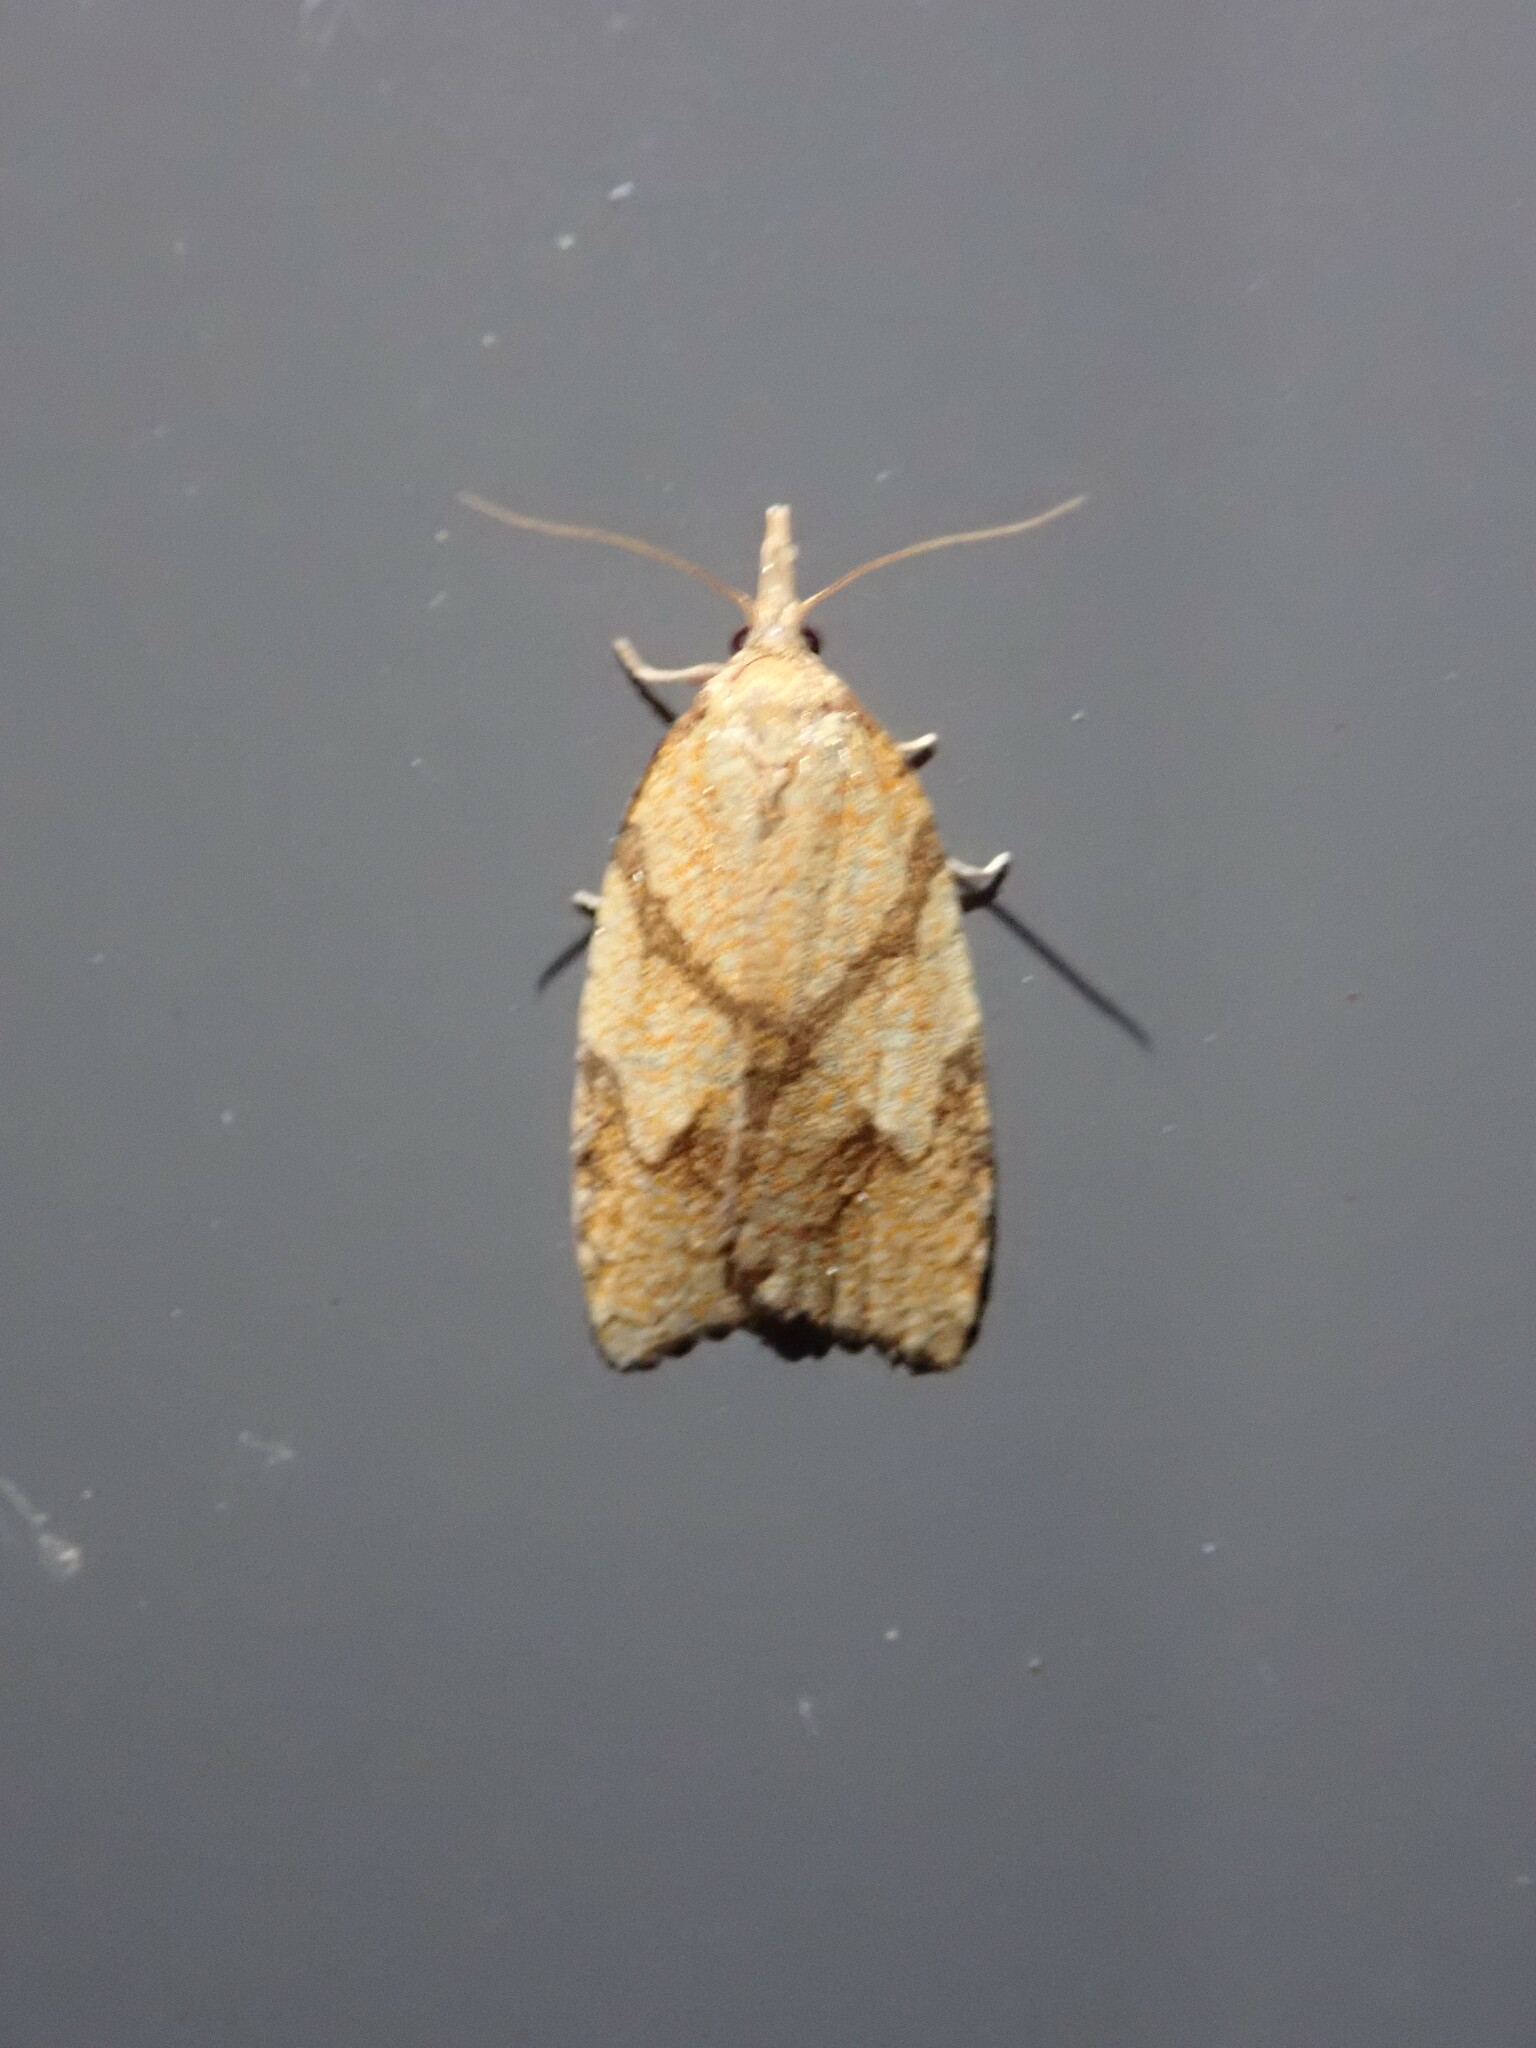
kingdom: Animalia
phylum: Arthropoda
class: Insecta
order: Lepidoptera
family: Tortricidae
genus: Cenopis
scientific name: Cenopis reticulatana
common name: Reticulated fruitworm moth
